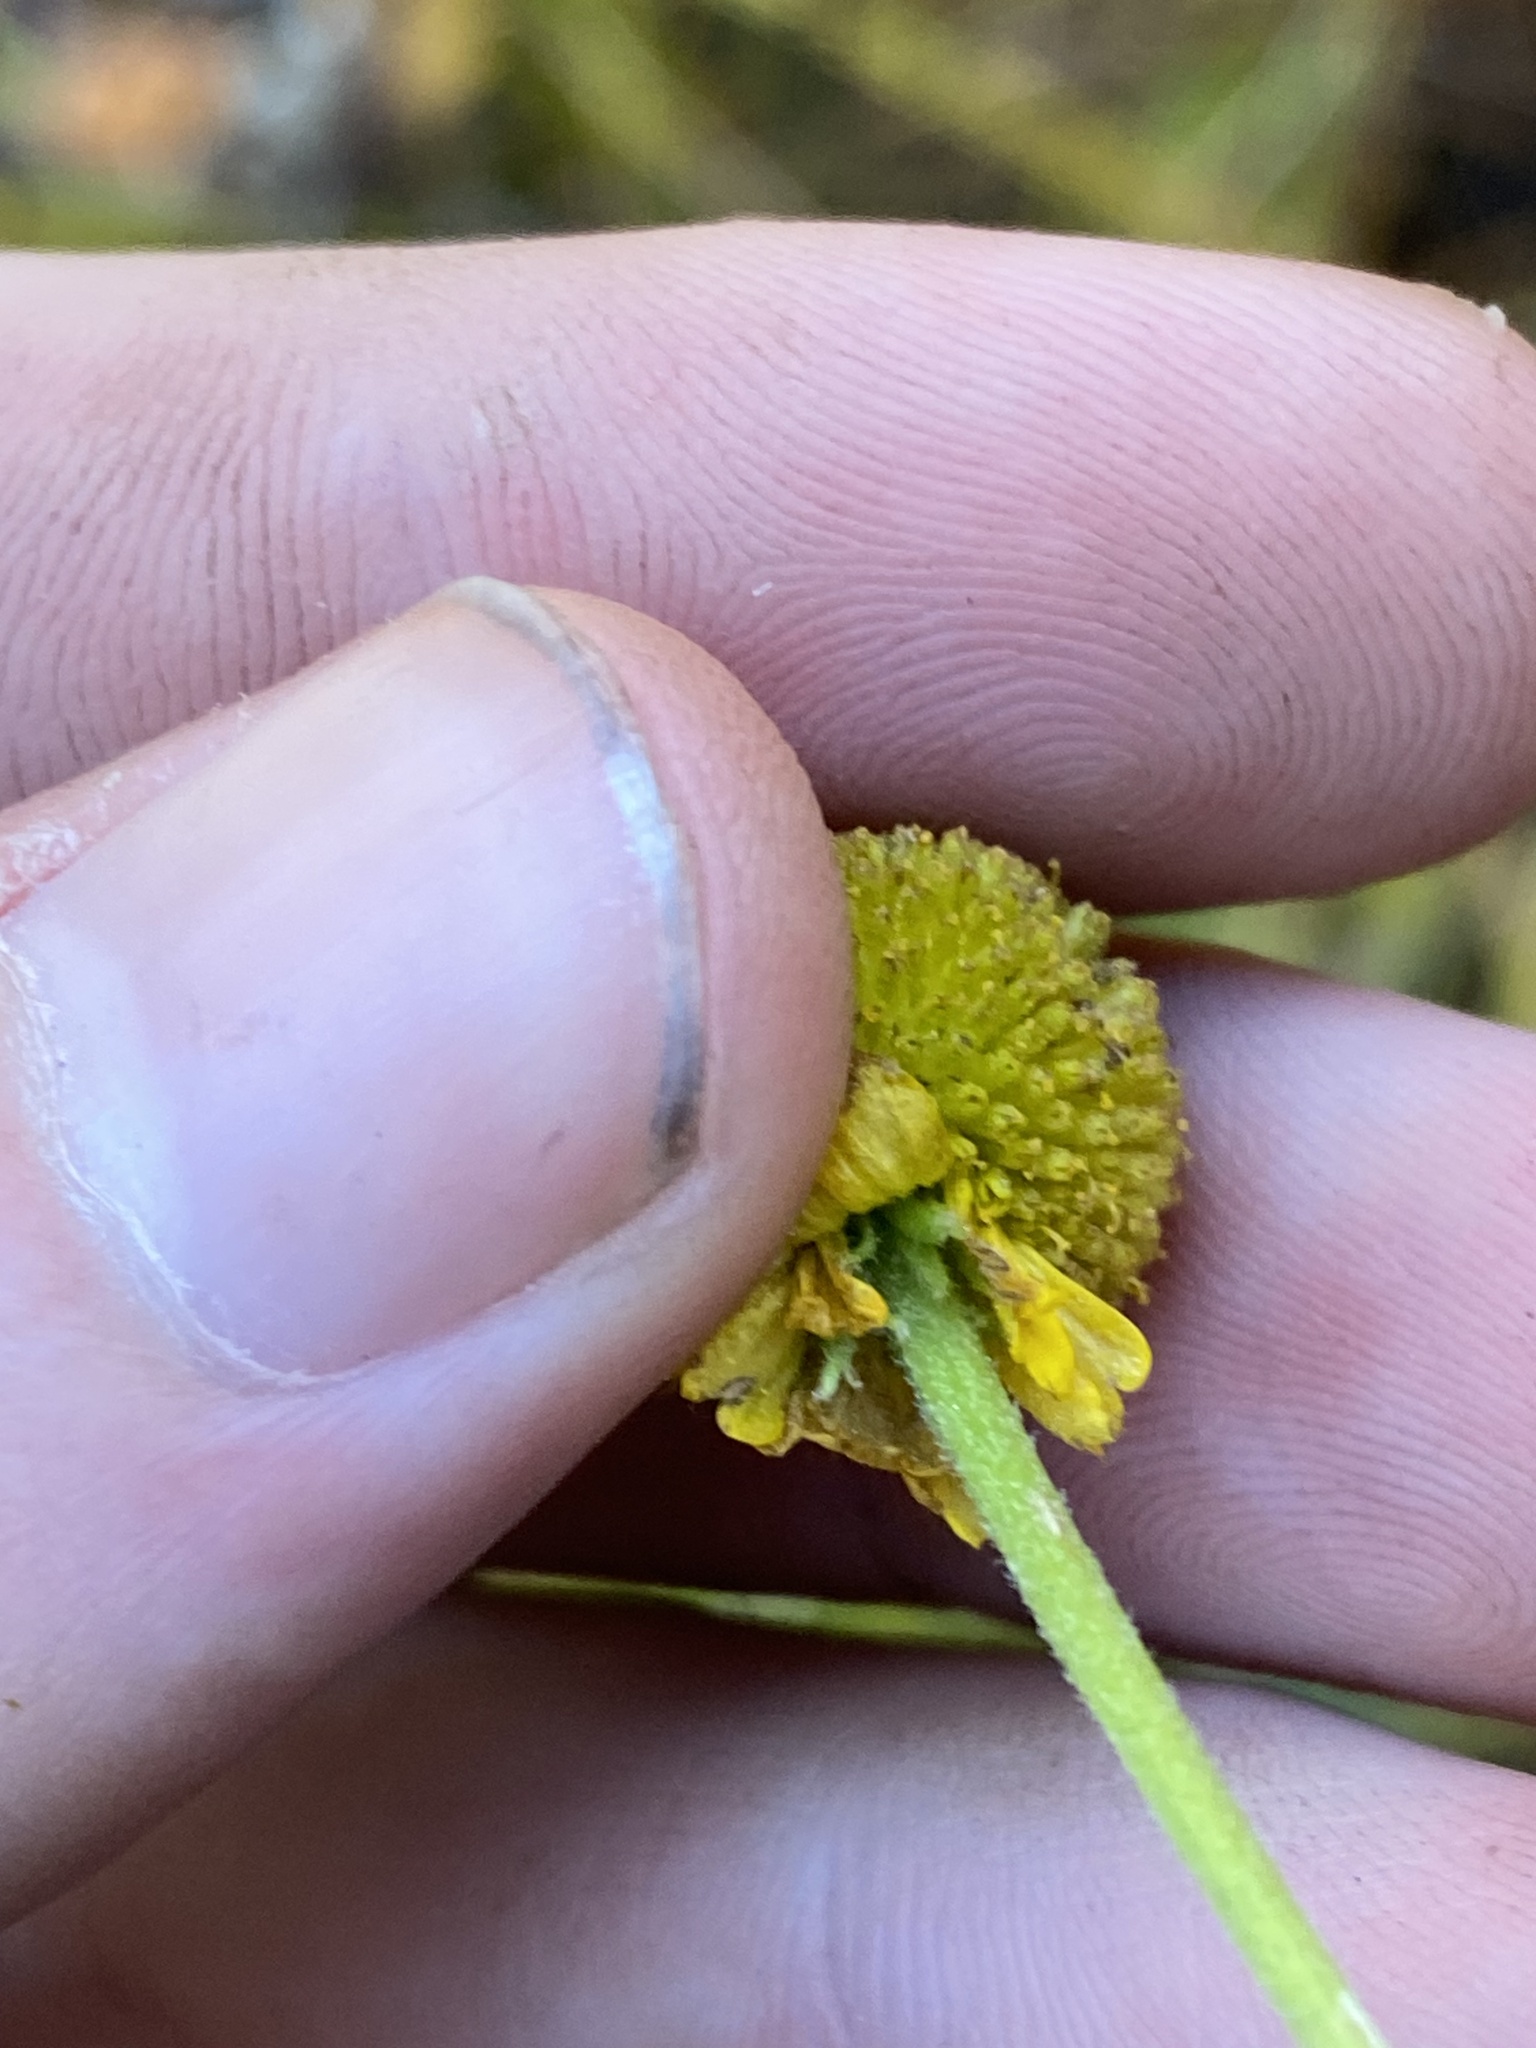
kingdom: Plantae
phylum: Tracheophyta
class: Magnoliopsida
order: Asterales
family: Asteraceae
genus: Helenium
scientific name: Helenium puberulum
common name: Sneezewort
